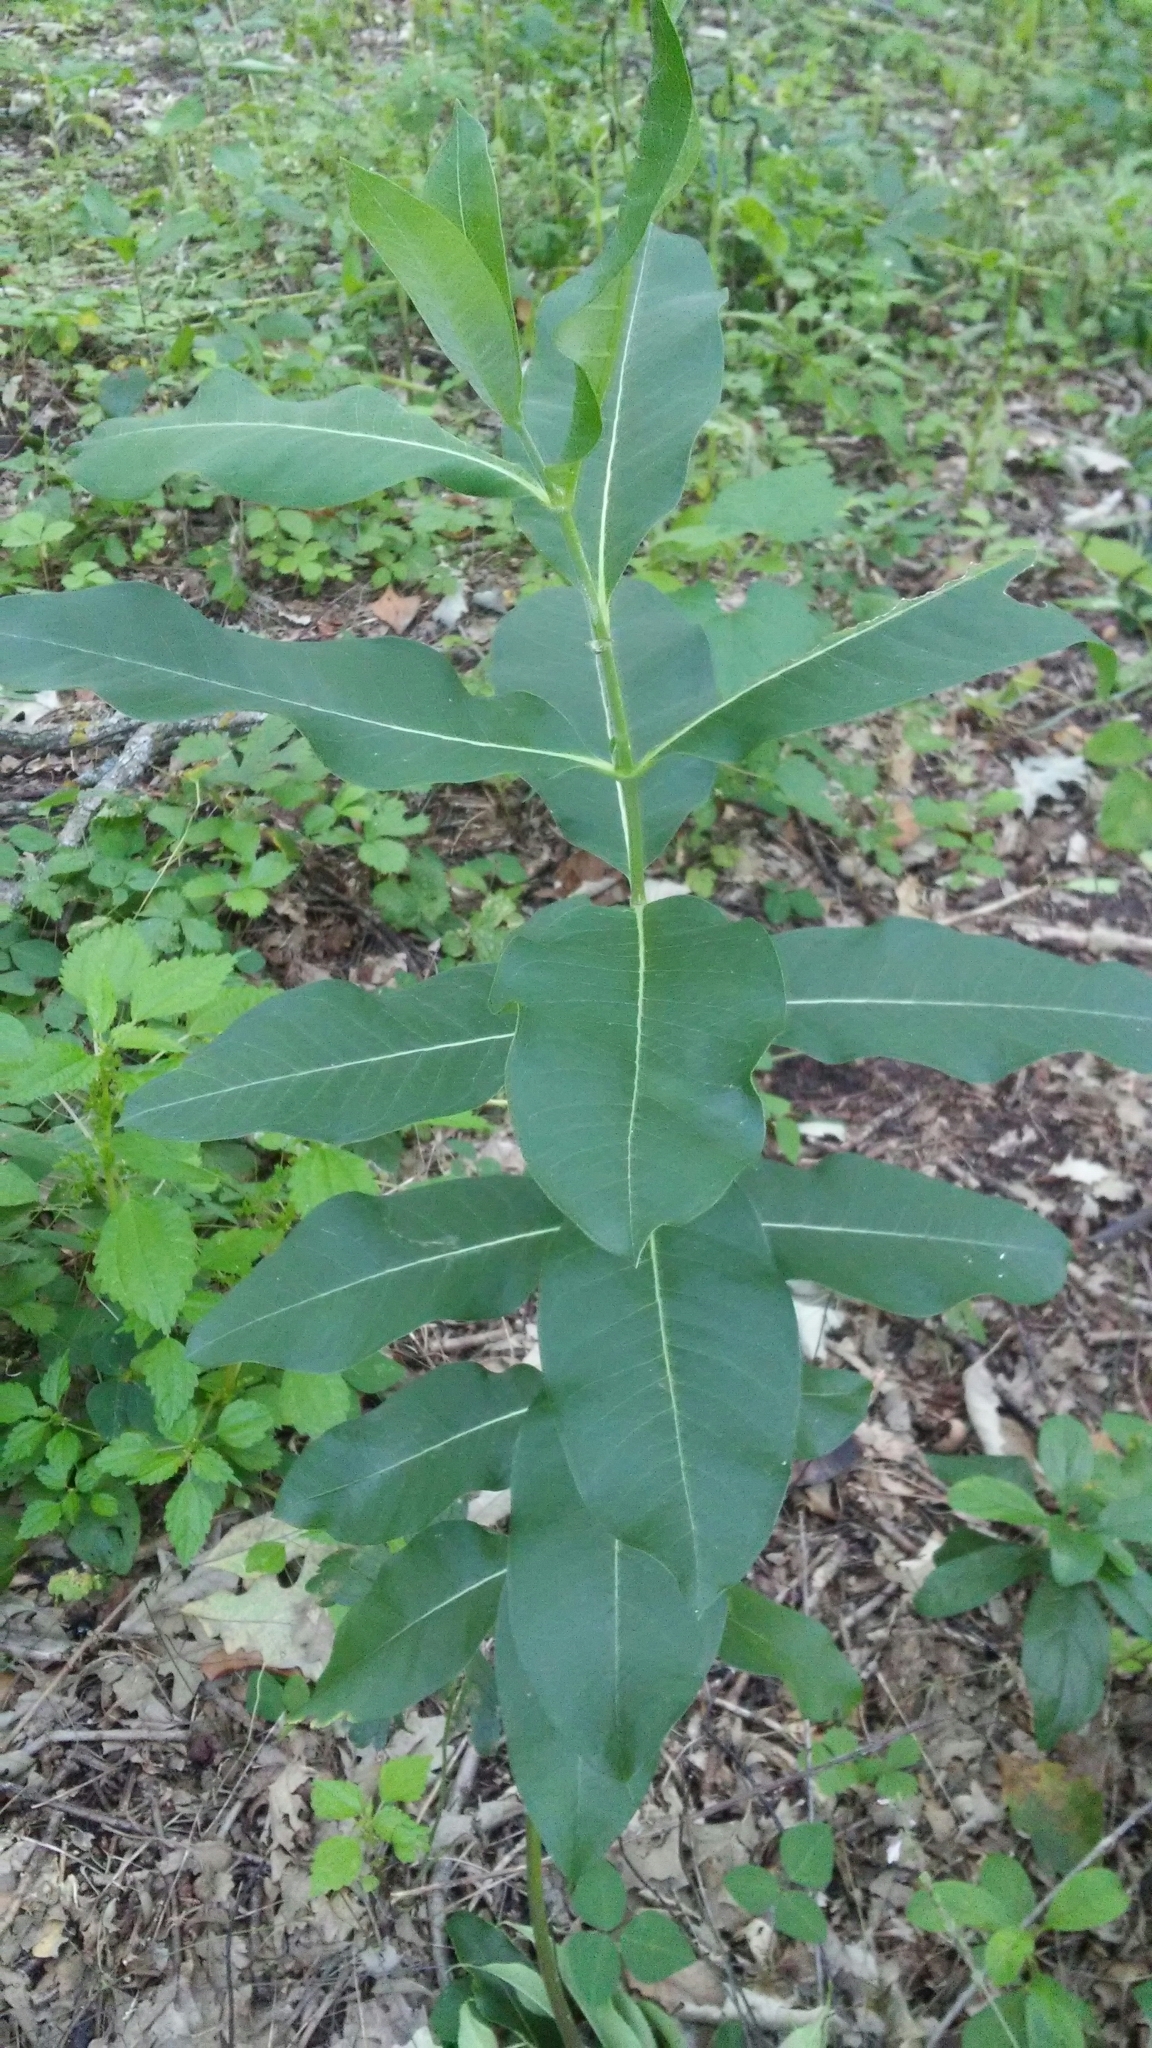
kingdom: Plantae
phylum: Tracheophyta
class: Magnoliopsida
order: Gentianales
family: Apocynaceae
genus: Asclepias
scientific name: Asclepias syriaca
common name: Common milkweed
